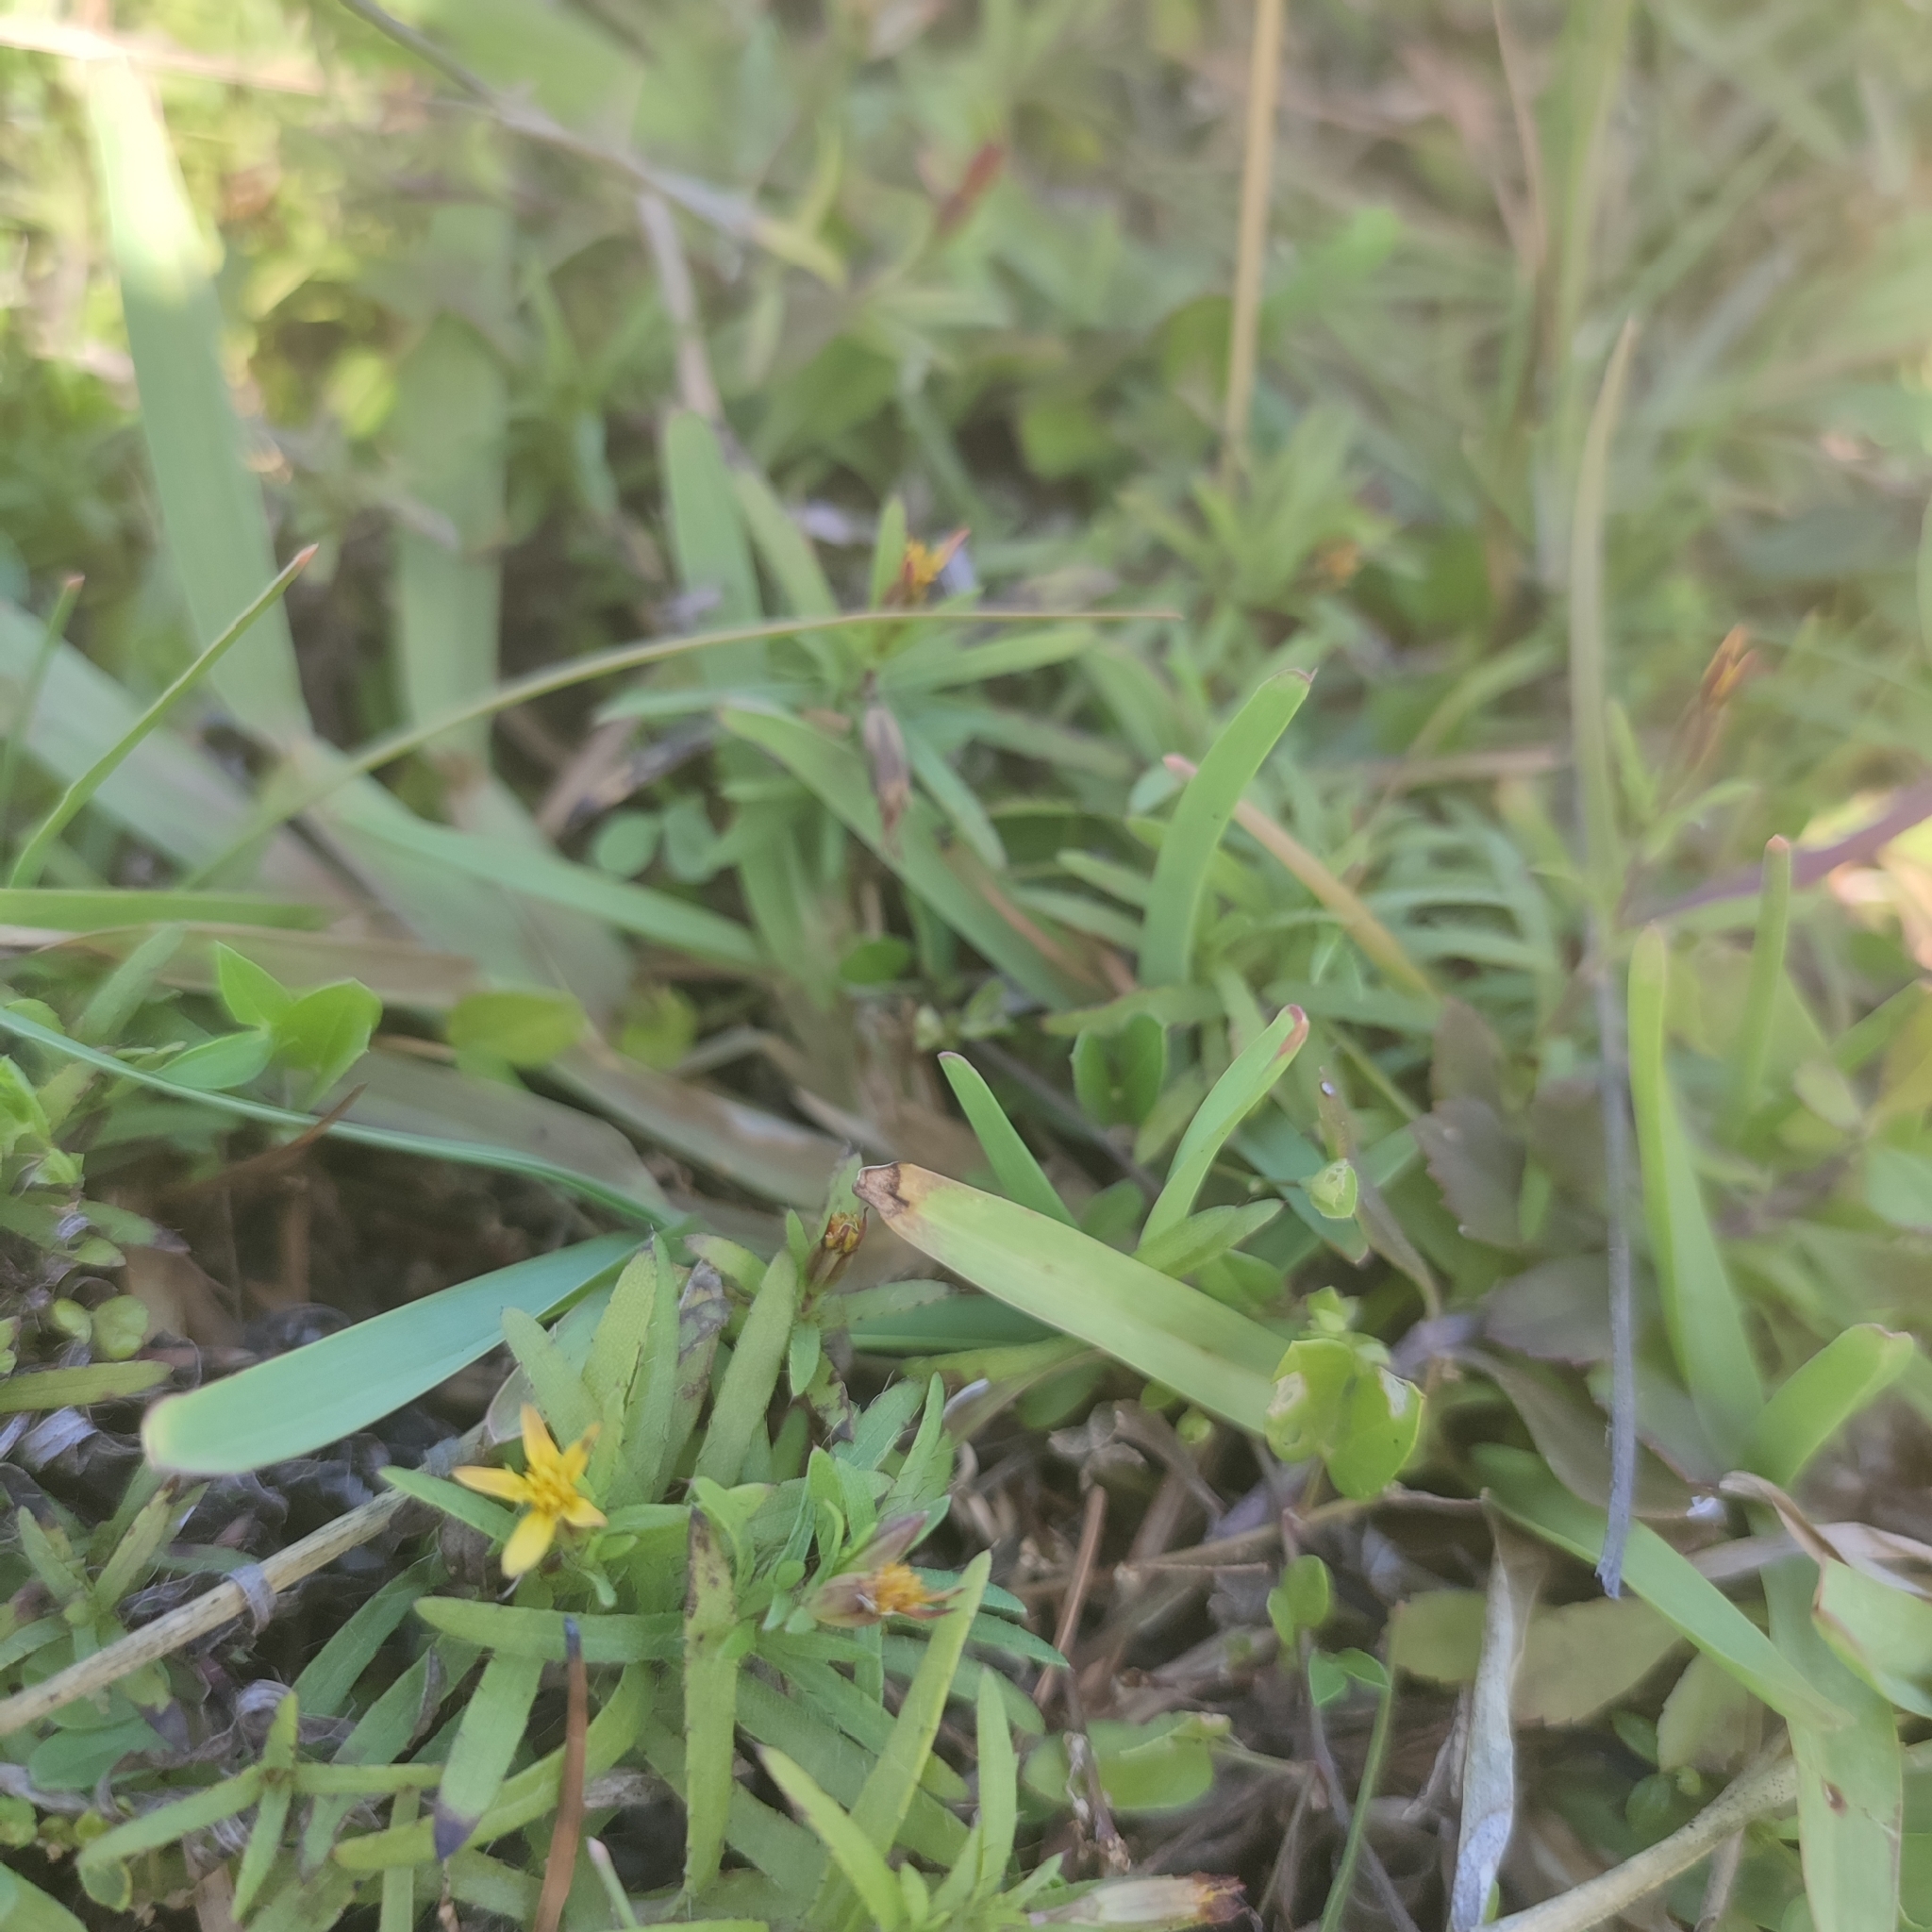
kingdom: Plantae
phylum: Tracheophyta
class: Magnoliopsida
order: Asterales
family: Asteraceae
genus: Pectis
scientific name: Pectis prostrata
